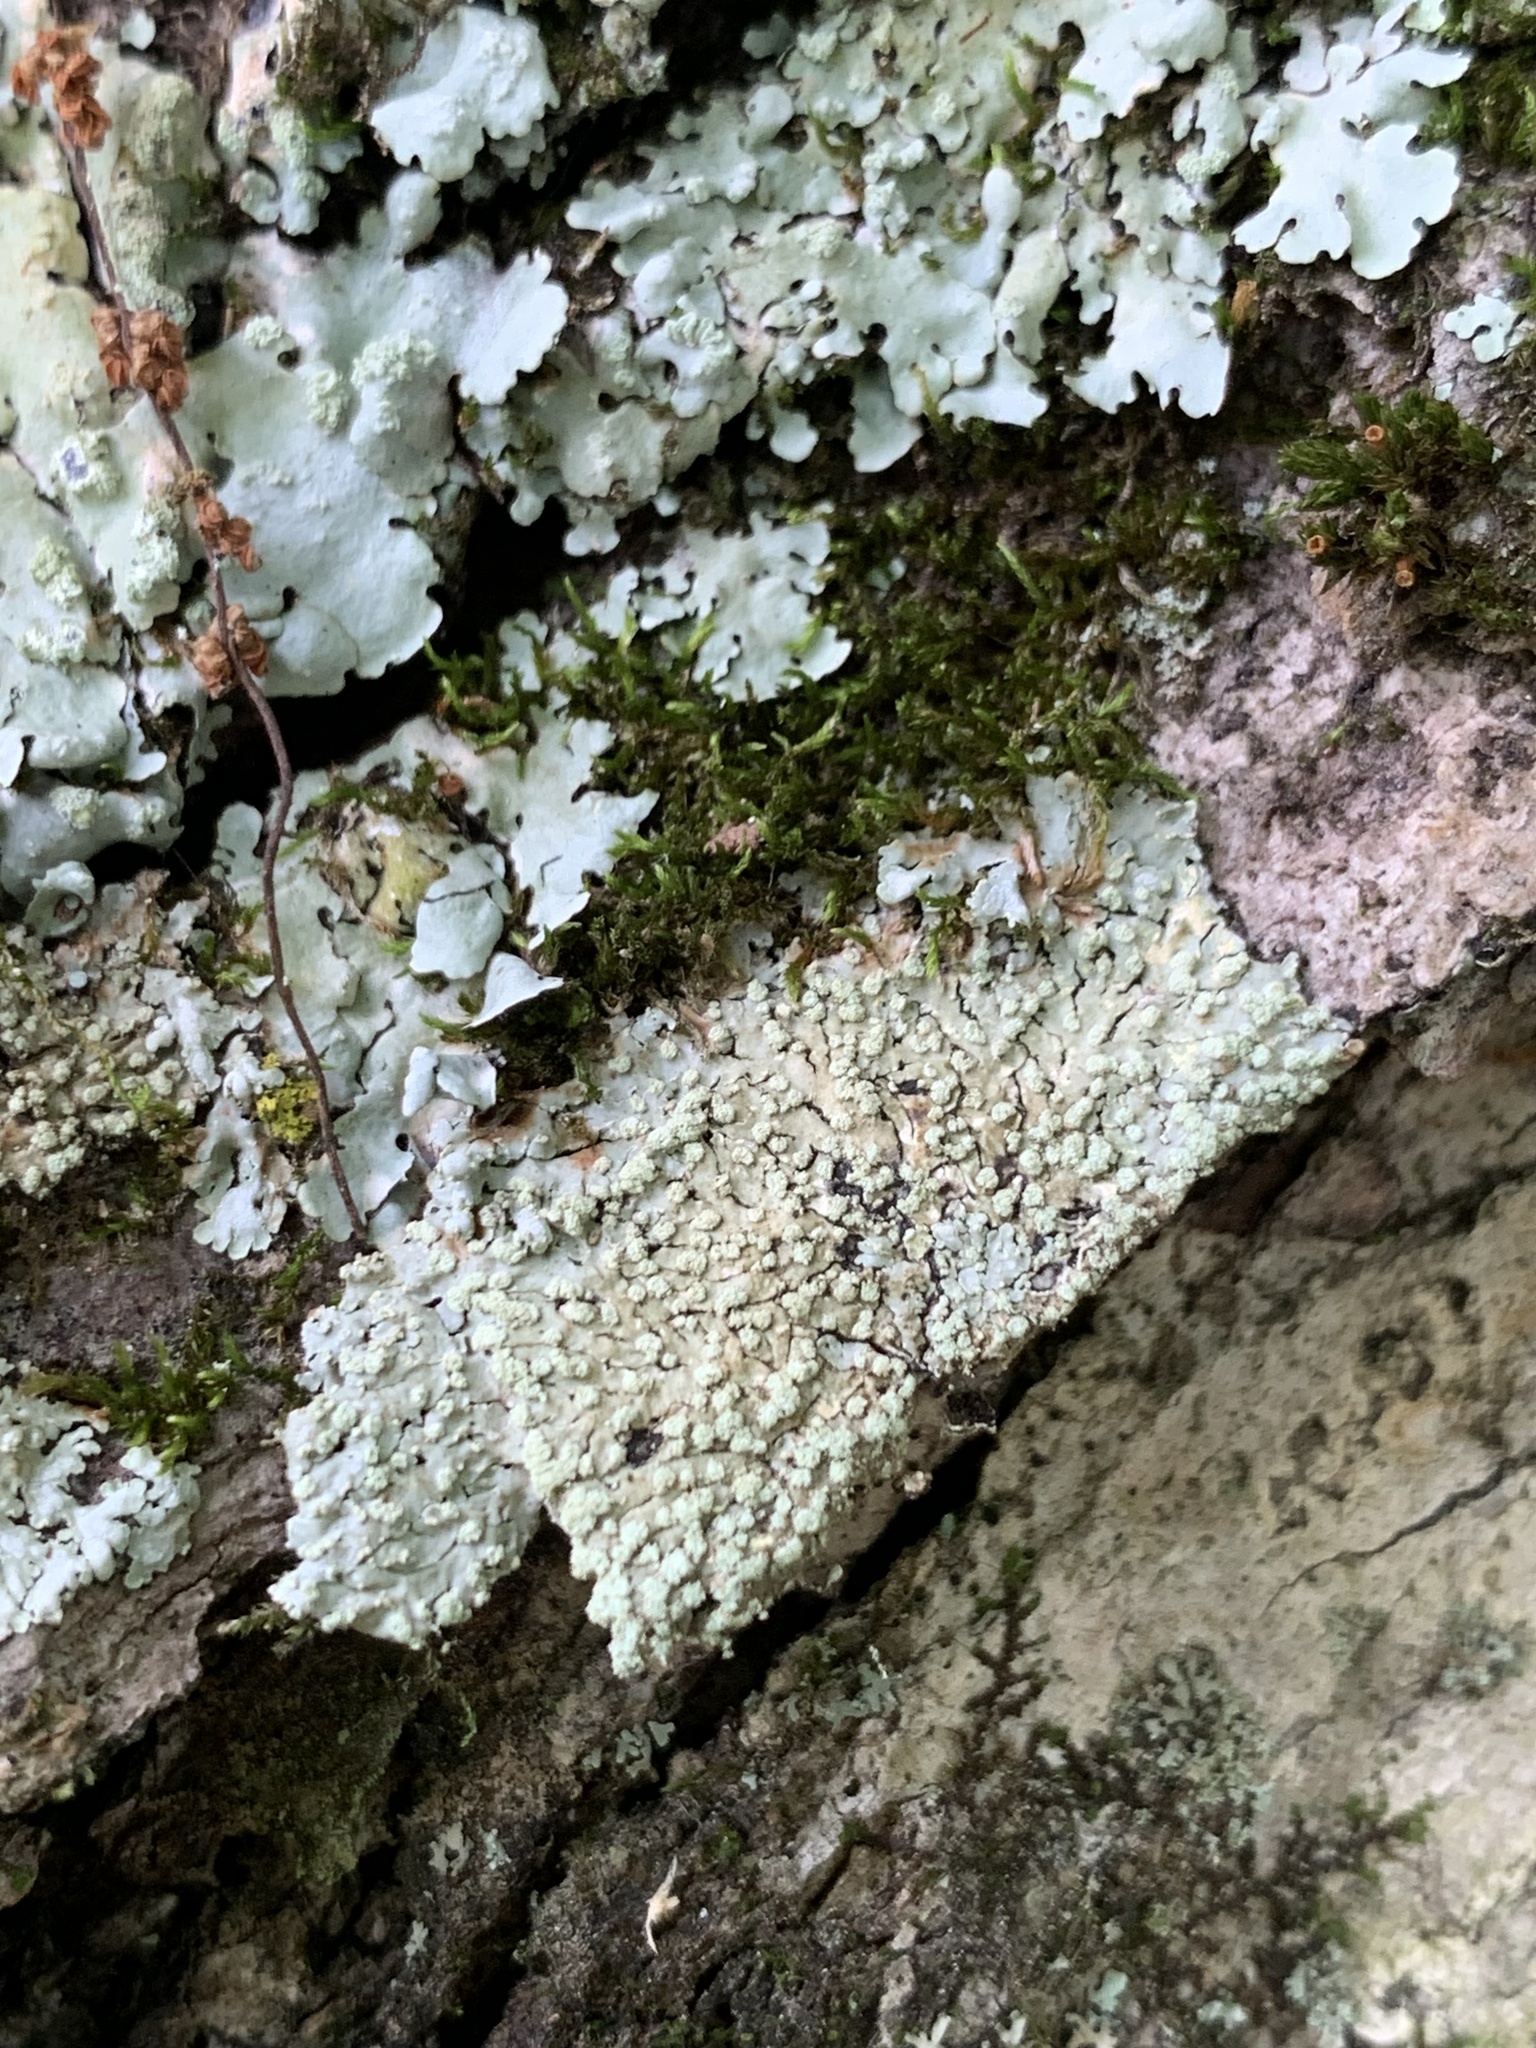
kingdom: Fungi
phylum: Ascomycota
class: Lecanoromycetes
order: Caliciales
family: Caliciaceae
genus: Pyxine
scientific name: Pyxine subcinerea
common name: Mustard lichen
